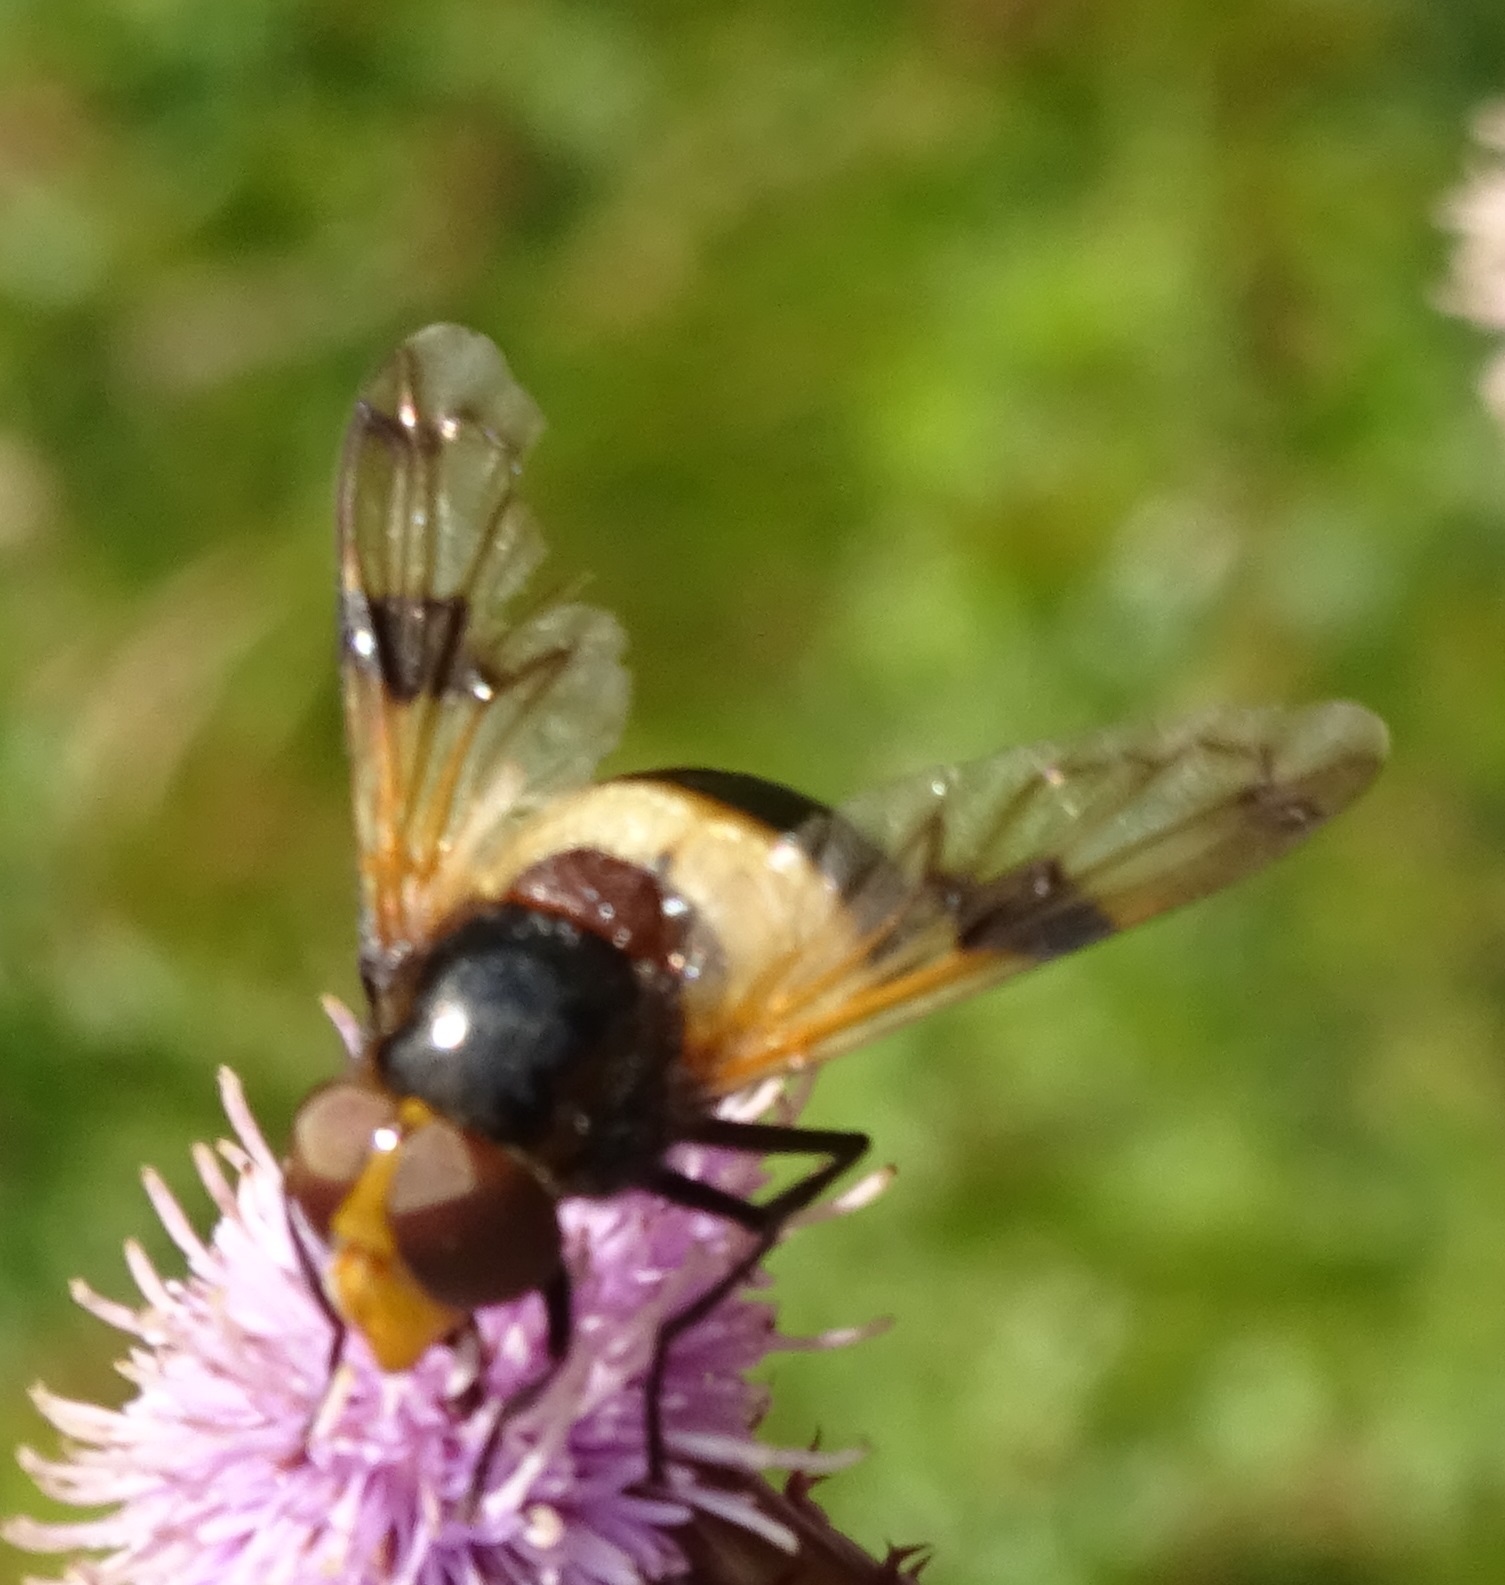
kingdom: Animalia
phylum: Arthropoda
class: Insecta
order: Diptera
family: Syrphidae
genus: Volucella
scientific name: Volucella pellucens
